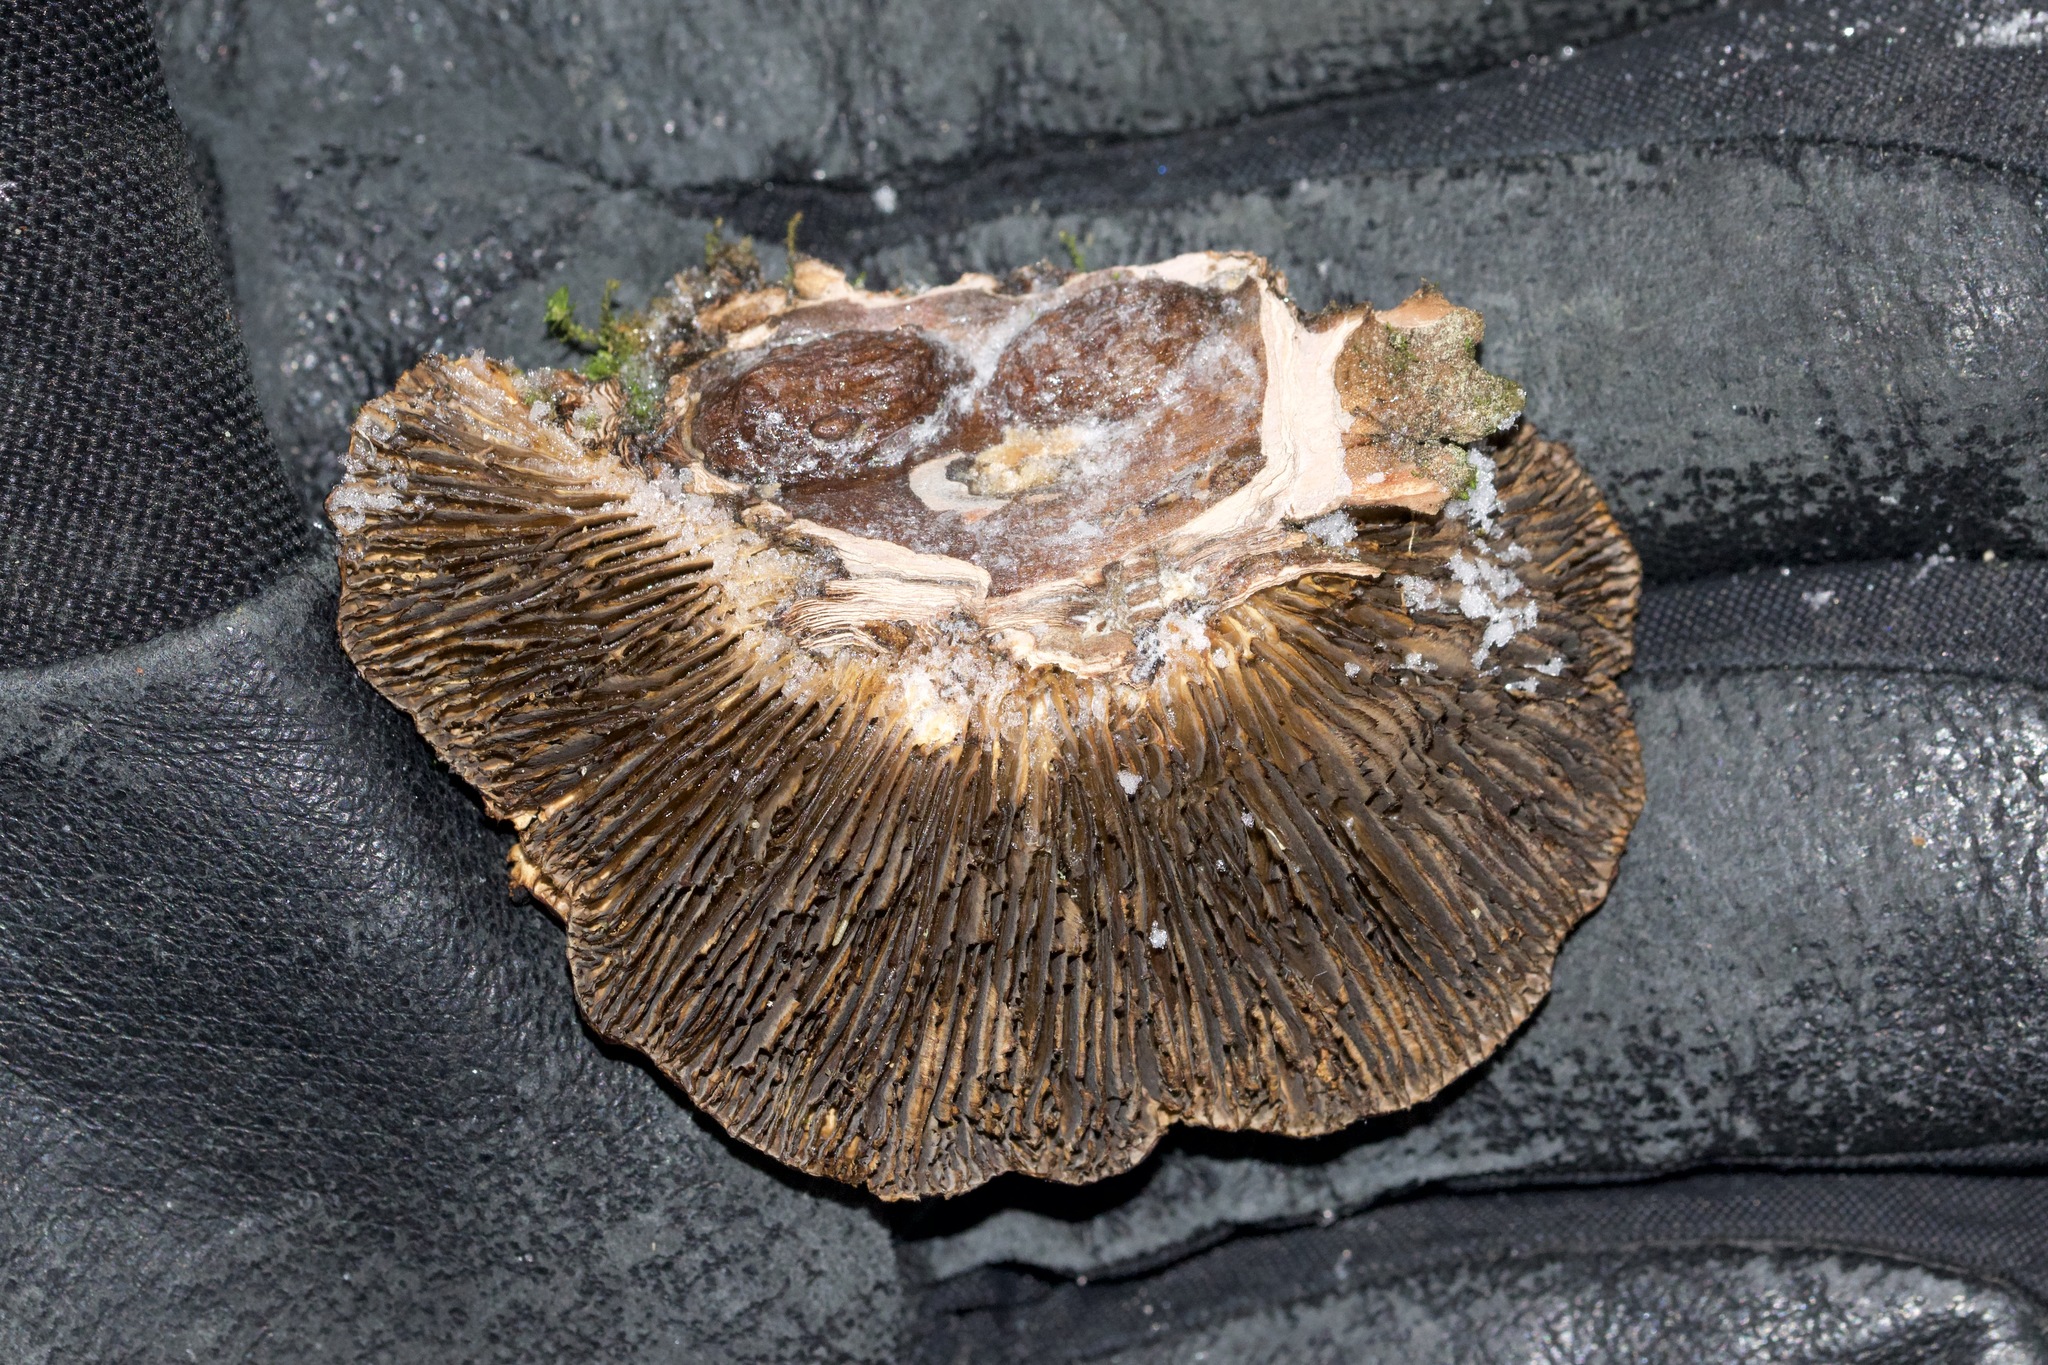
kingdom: Fungi
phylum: Basidiomycota
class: Agaricomycetes
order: Polyporales
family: Polyporaceae
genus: Lenzites
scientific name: Lenzites betulinus
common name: Birch mazegill
